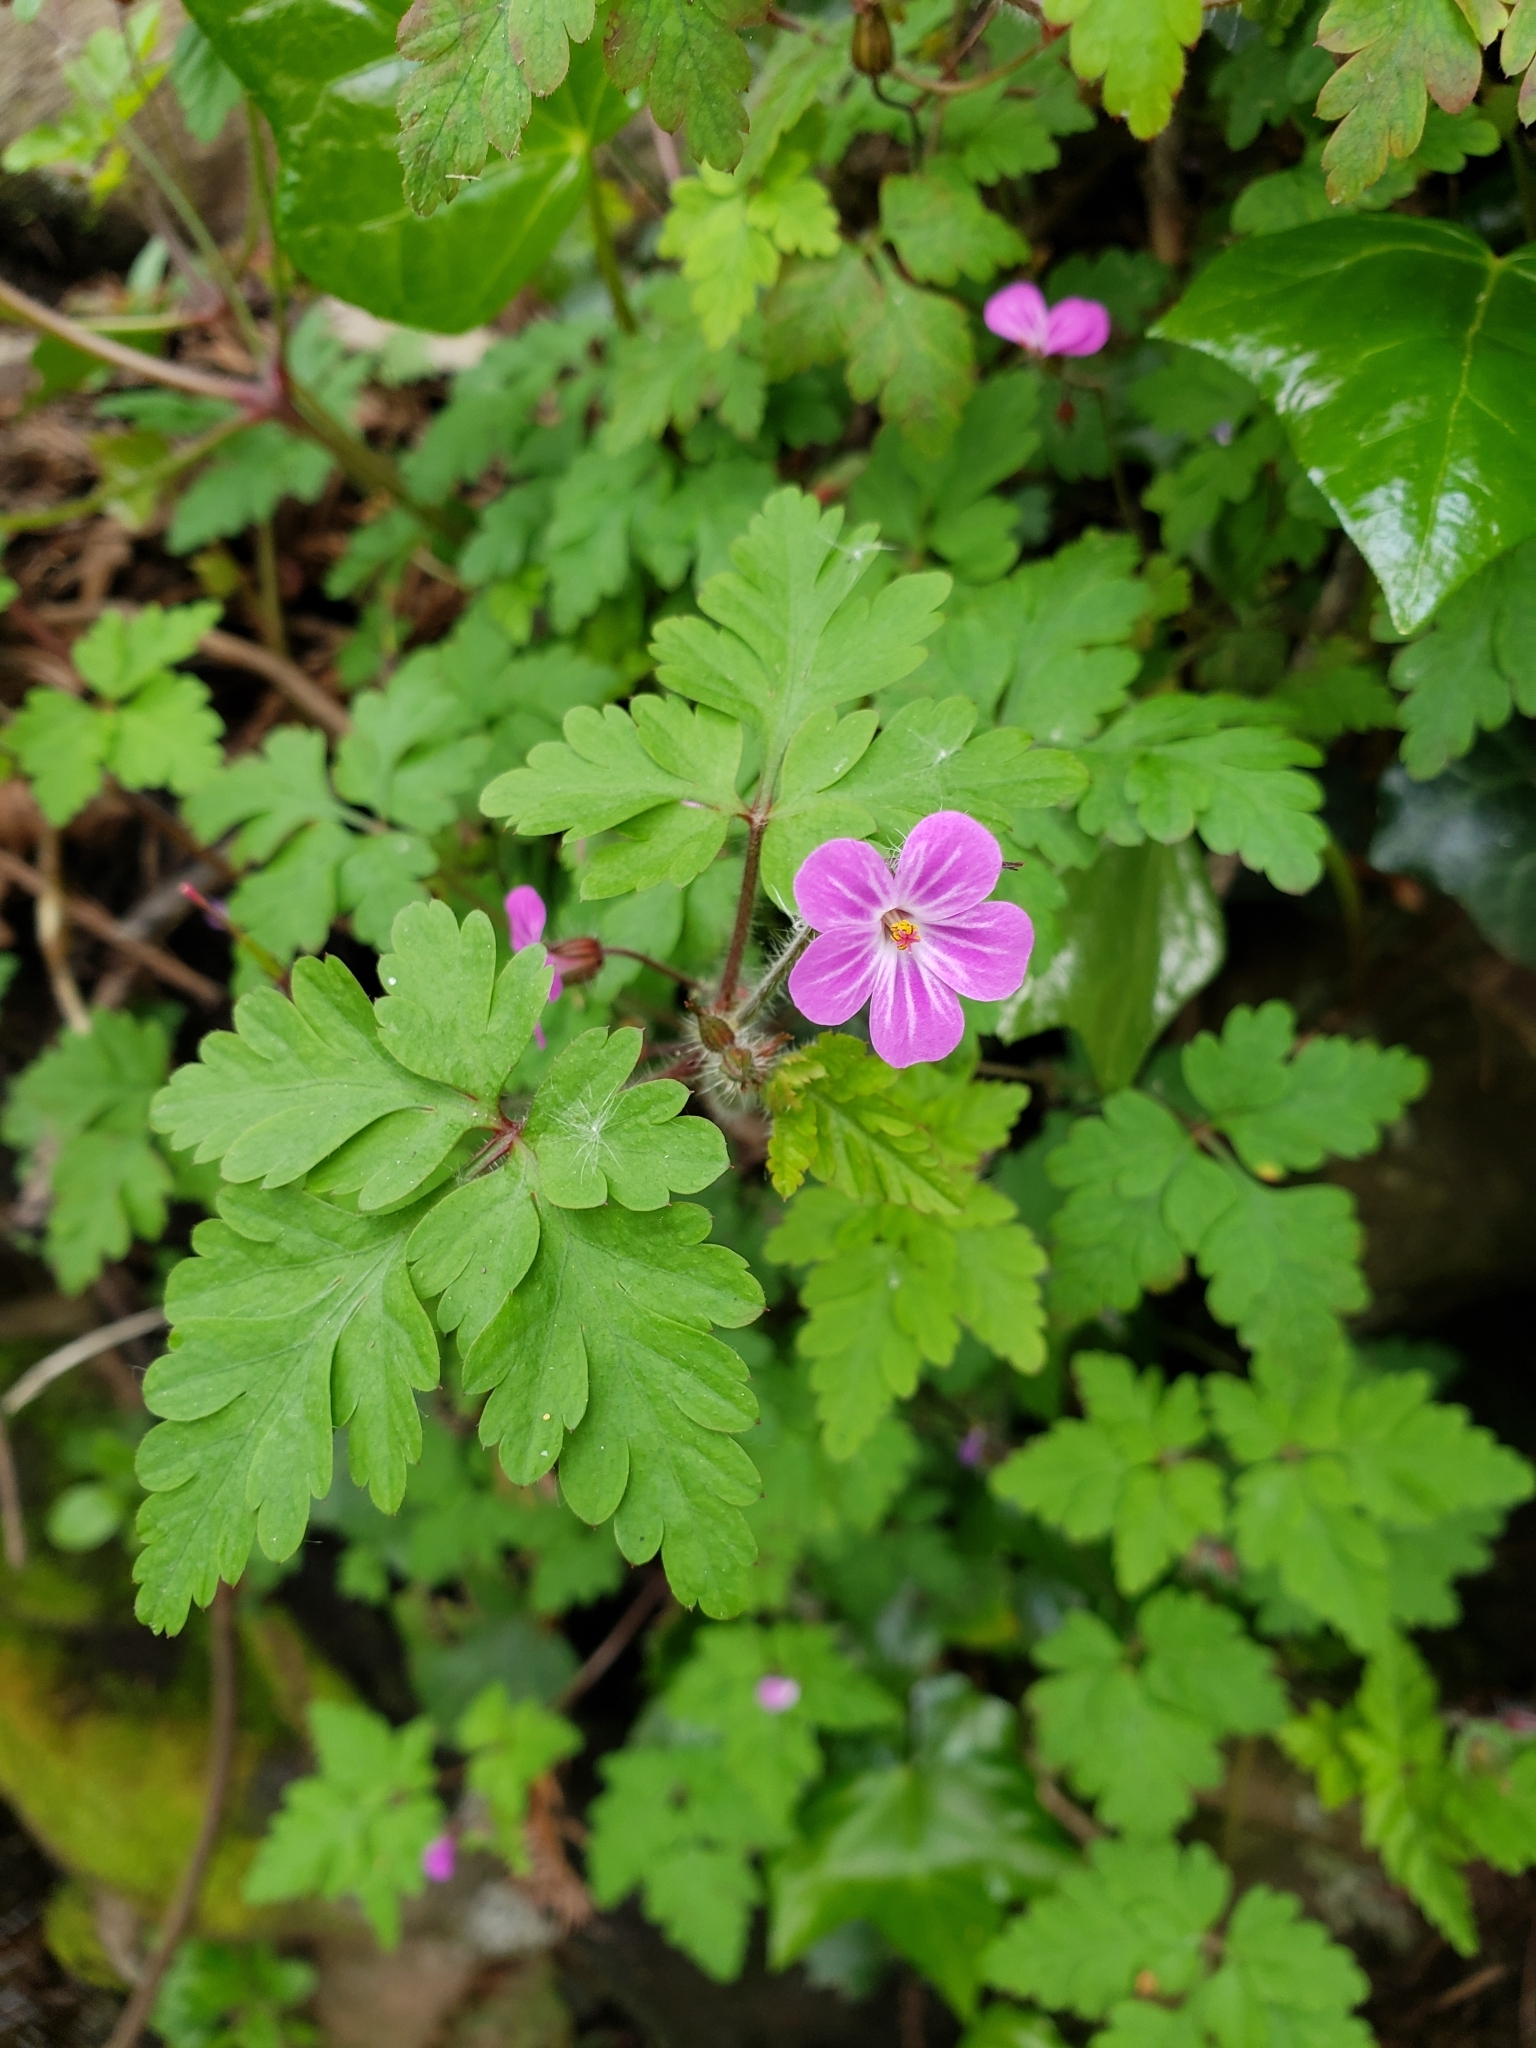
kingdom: Plantae
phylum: Tracheophyta
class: Magnoliopsida
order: Geraniales
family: Geraniaceae
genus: Geranium
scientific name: Geranium robertianum
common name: Herb-robert
